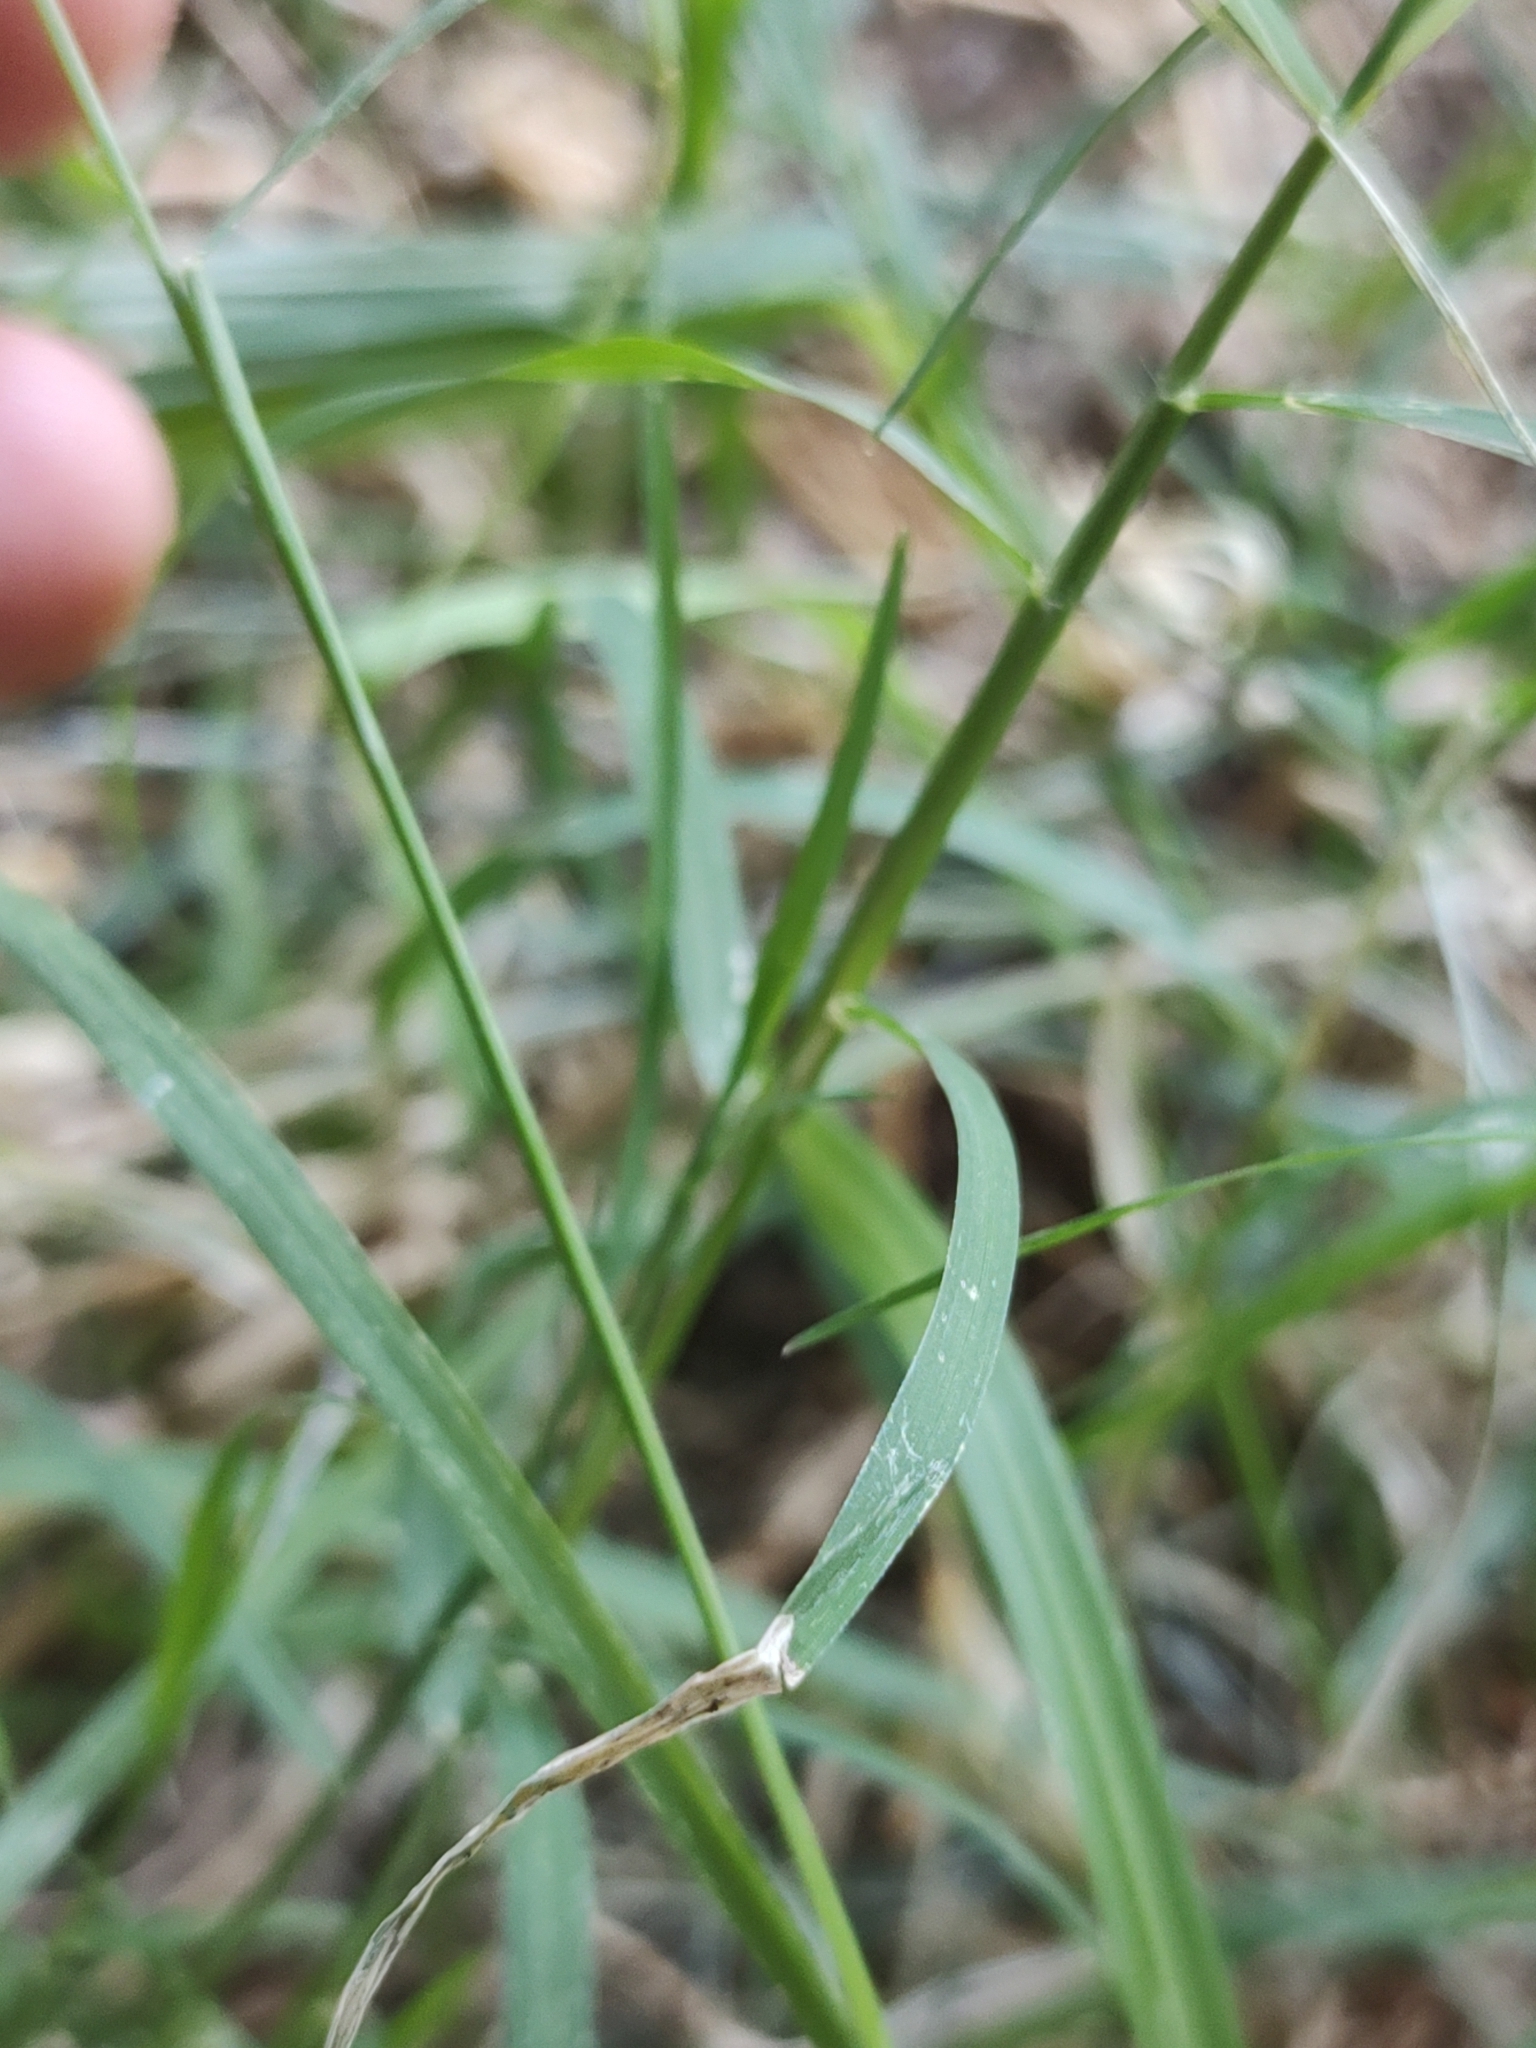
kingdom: Plantae
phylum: Tracheophyta
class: Liliopsida
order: Poales
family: Poaceae
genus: Eragrostis
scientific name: Eragrostis tenuifolia
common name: Elastic grass
